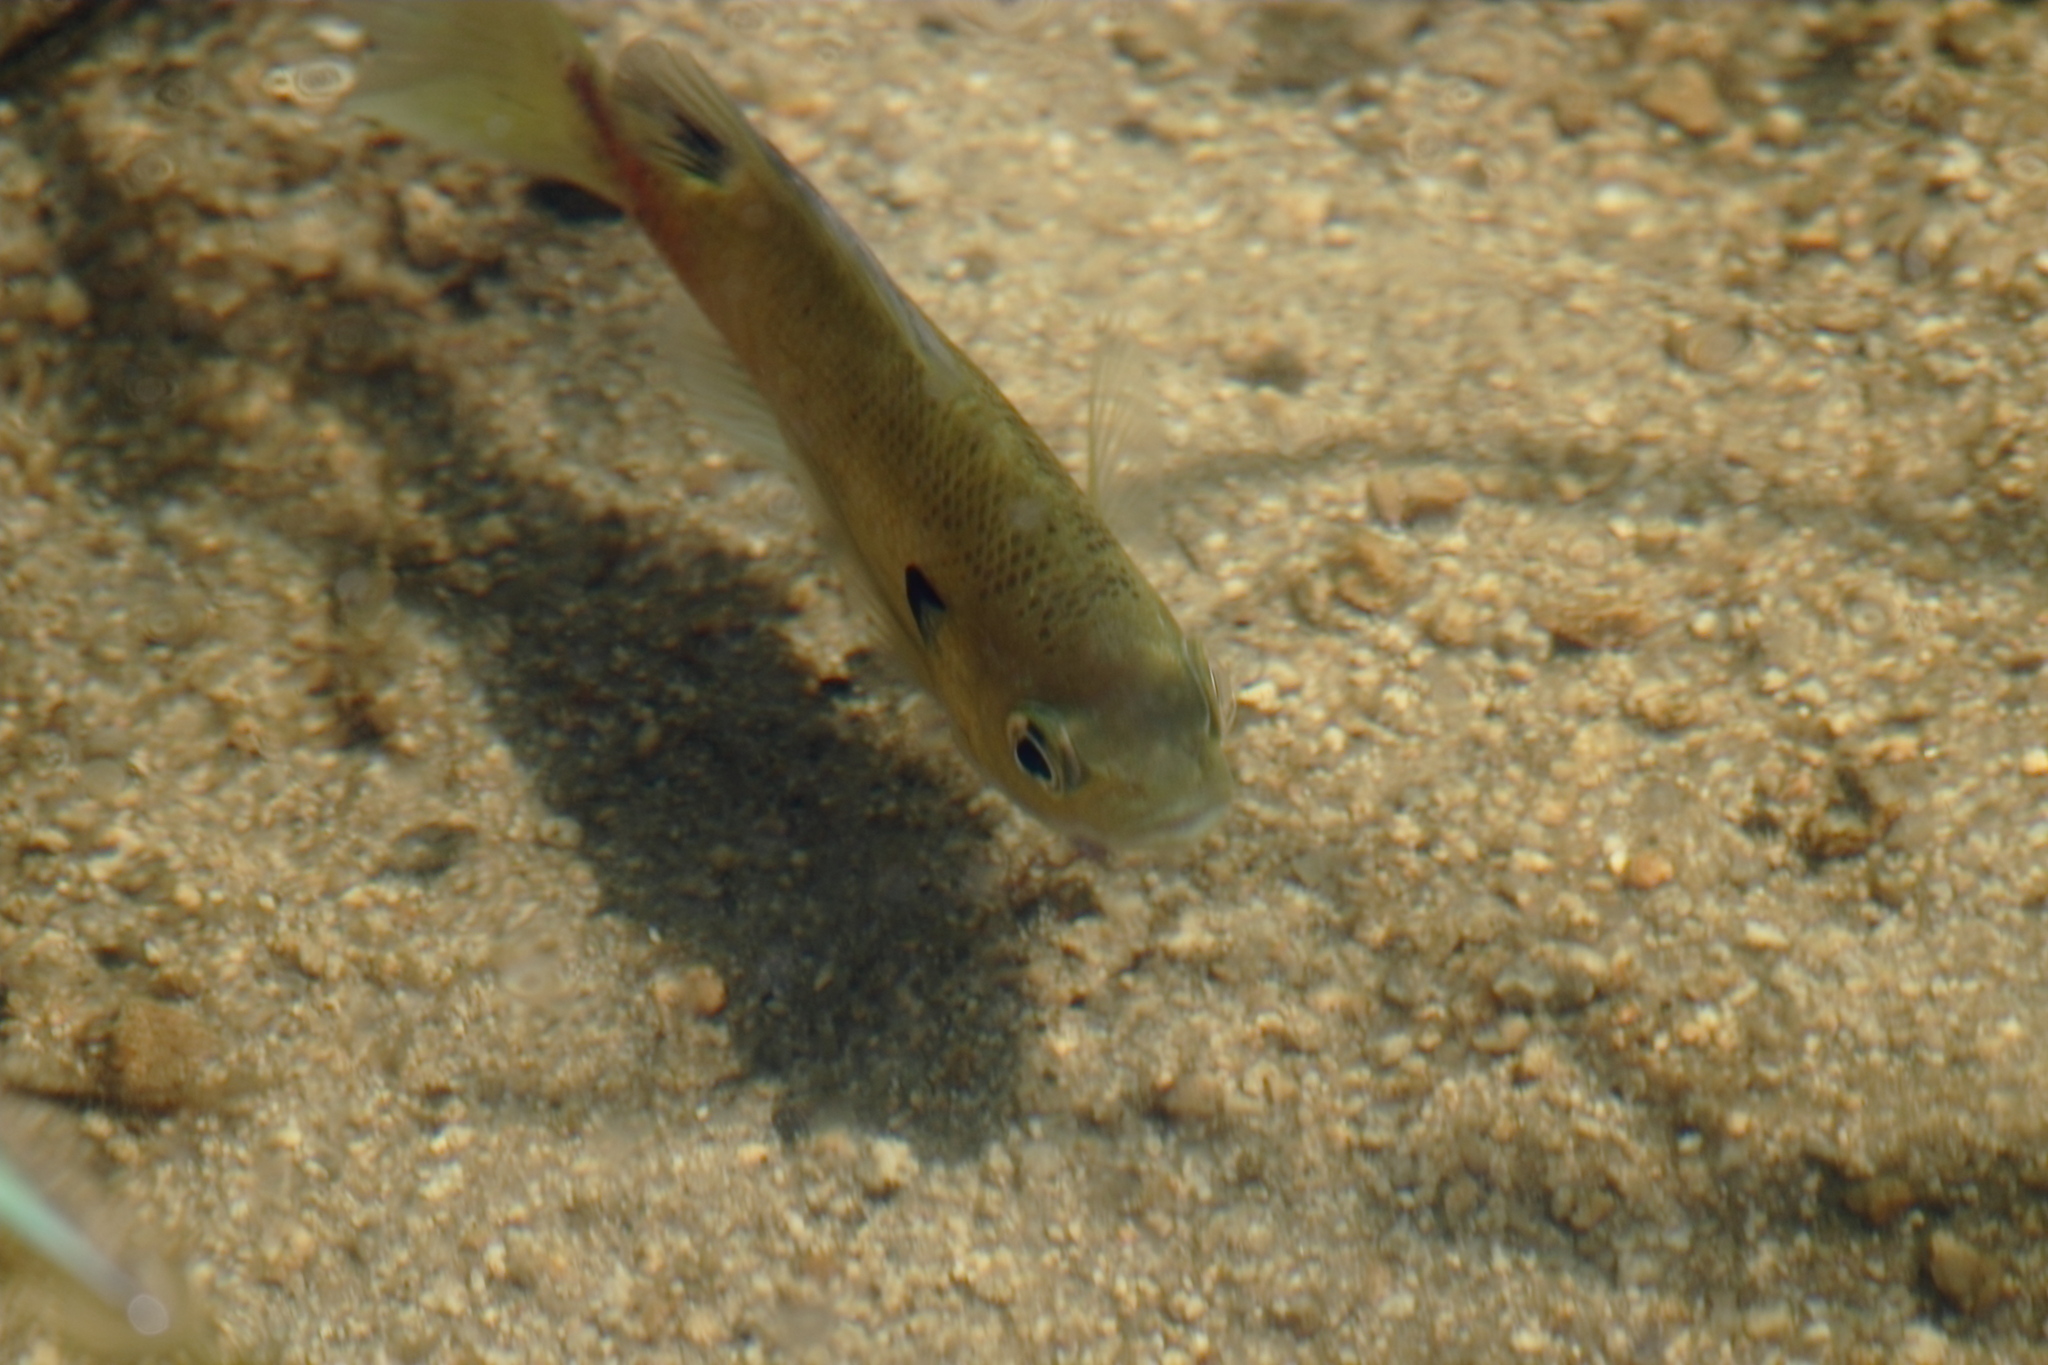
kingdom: Animalia
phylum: Chordata
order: Perciformes
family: Centrarchidae
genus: Lepomis
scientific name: Lepomis macrochirus
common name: Bluegill
